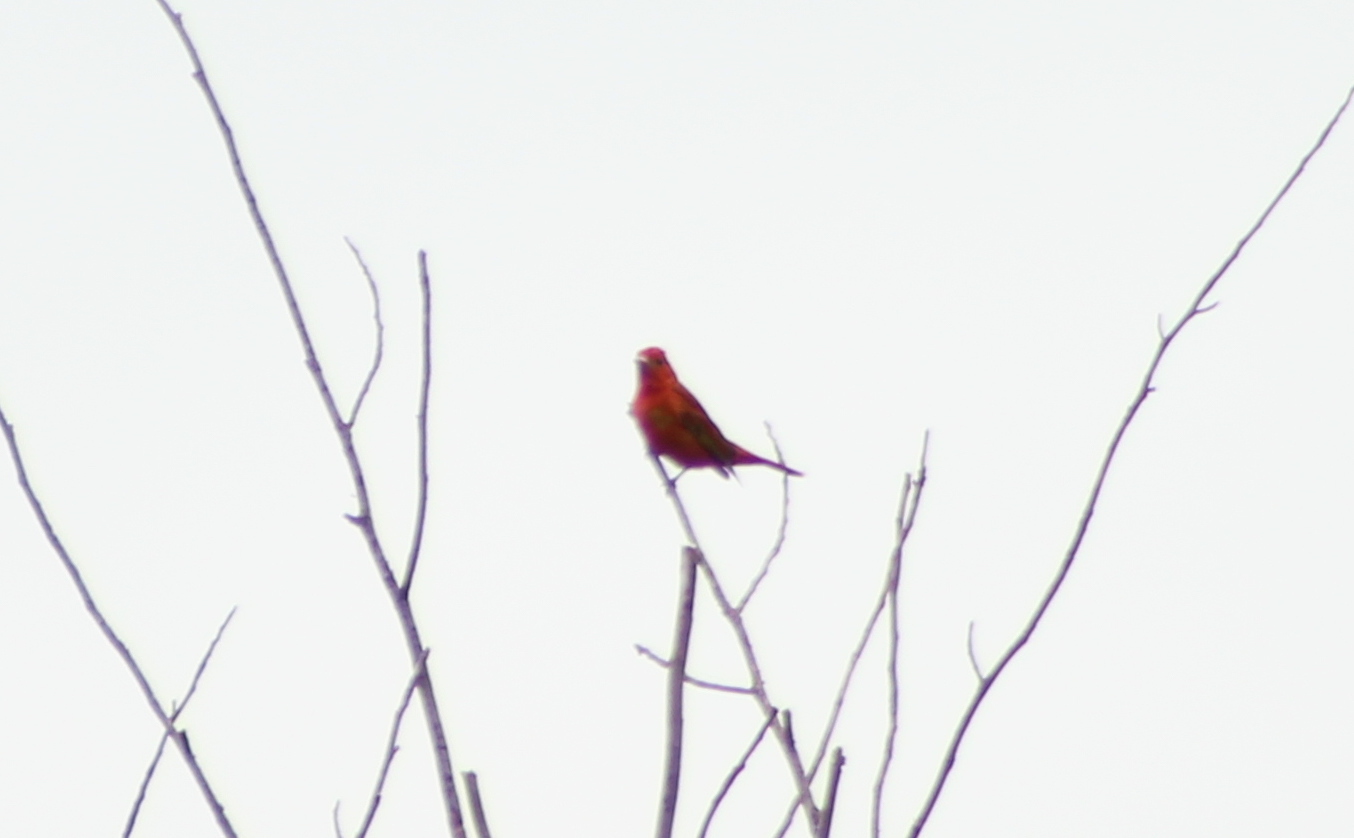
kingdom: Animalia
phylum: Chordata
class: Aves
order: Passeriformes
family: Cardinalidae
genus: Piranga
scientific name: Piranga rubra
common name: Summer tanager
